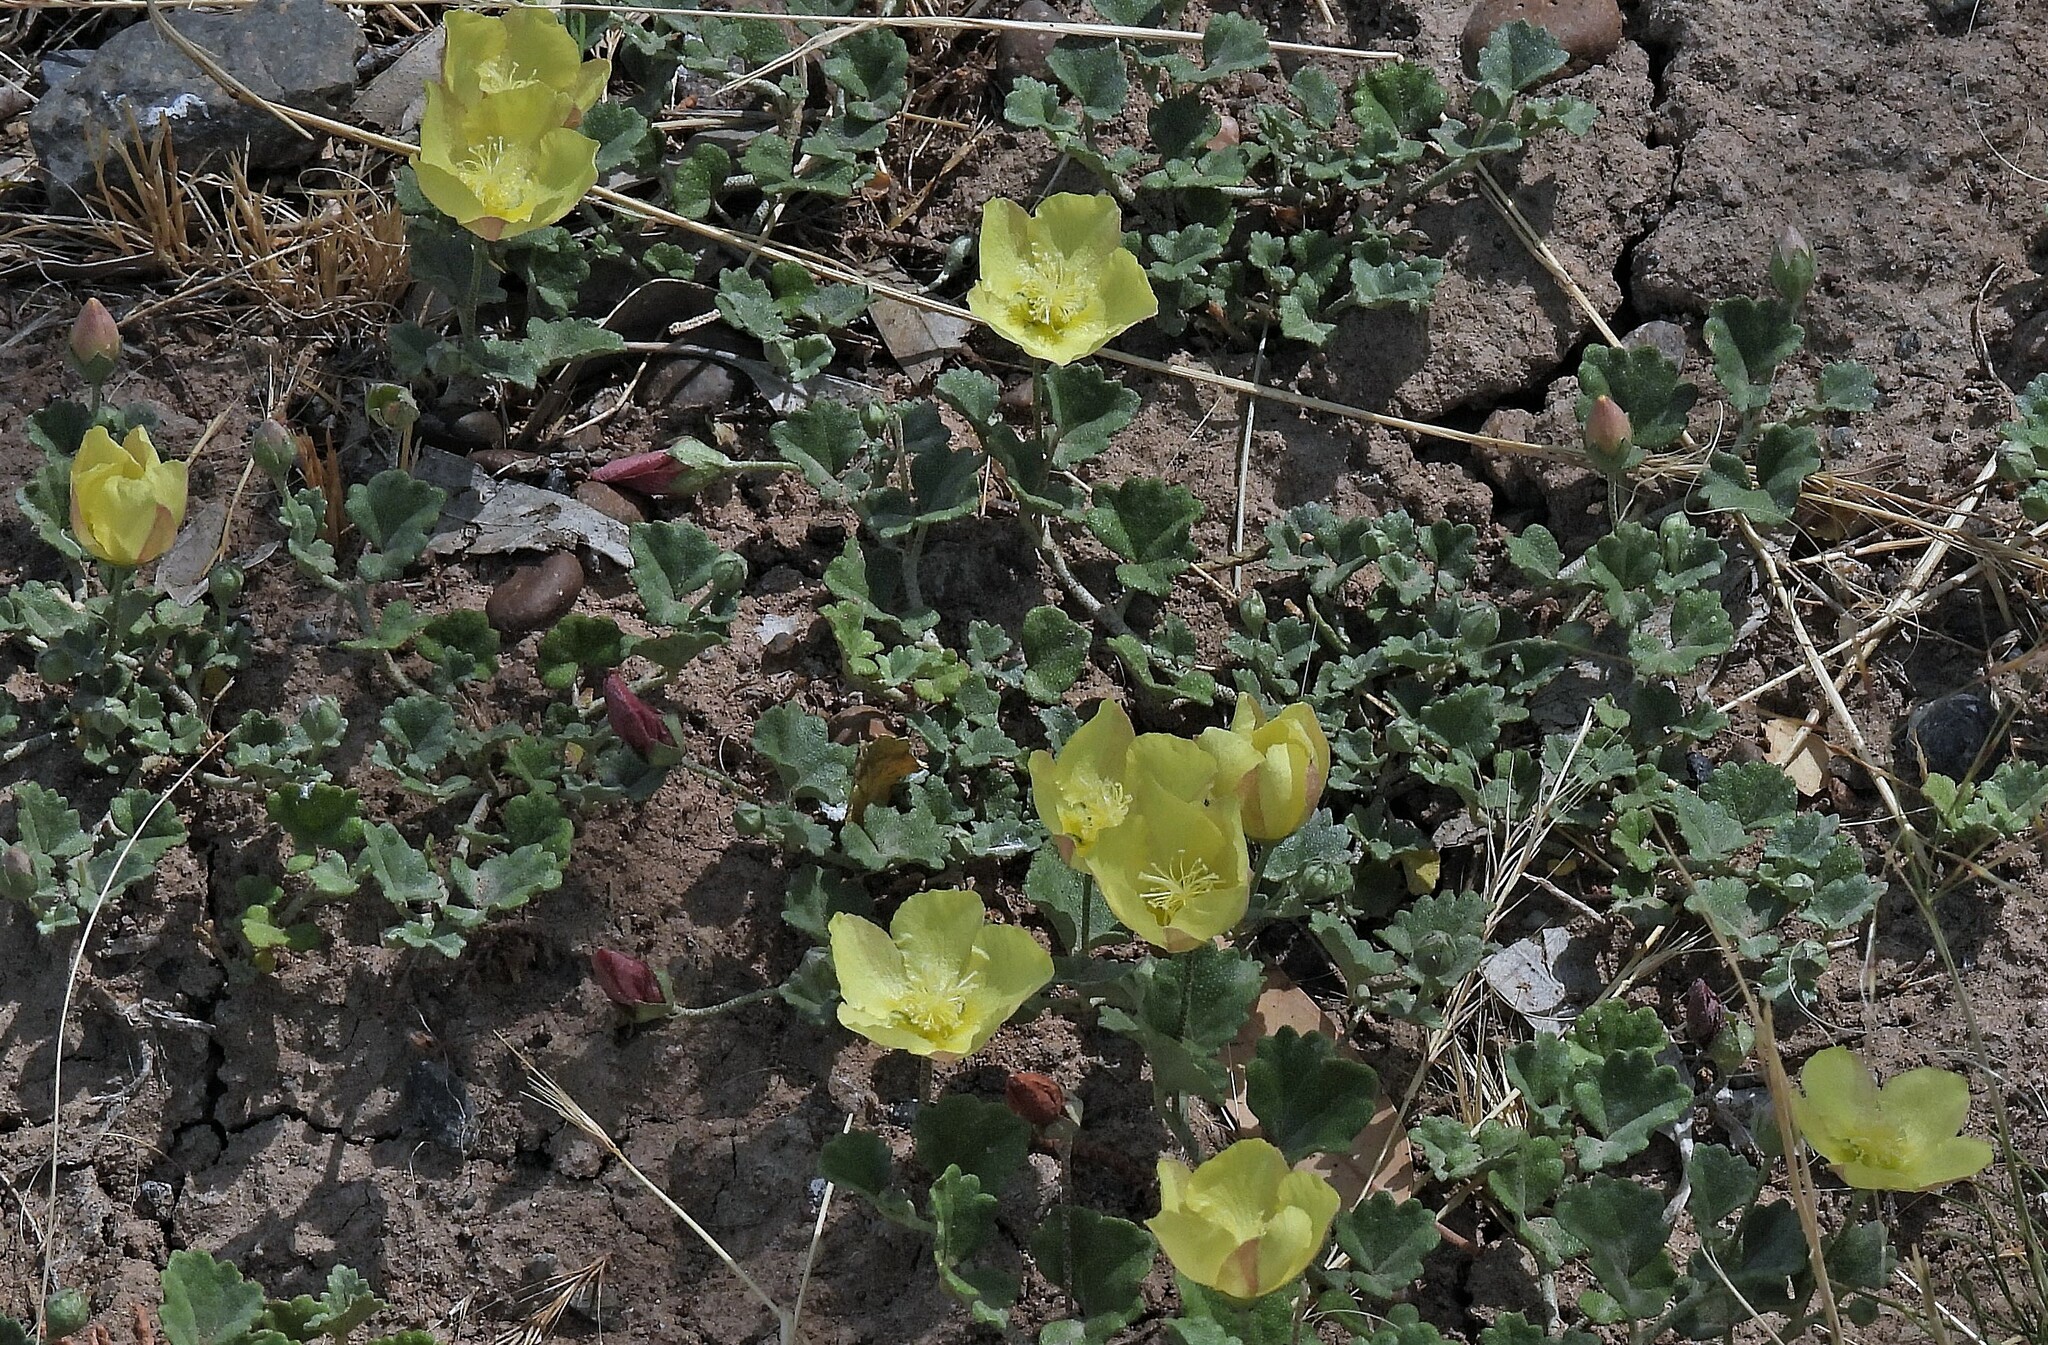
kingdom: Plantae
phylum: Tracheophyta
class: Magnoliopsida
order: Malvales
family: Malvaceae
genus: Malvella
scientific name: Malvella leprosa
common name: Alkali-mallow
